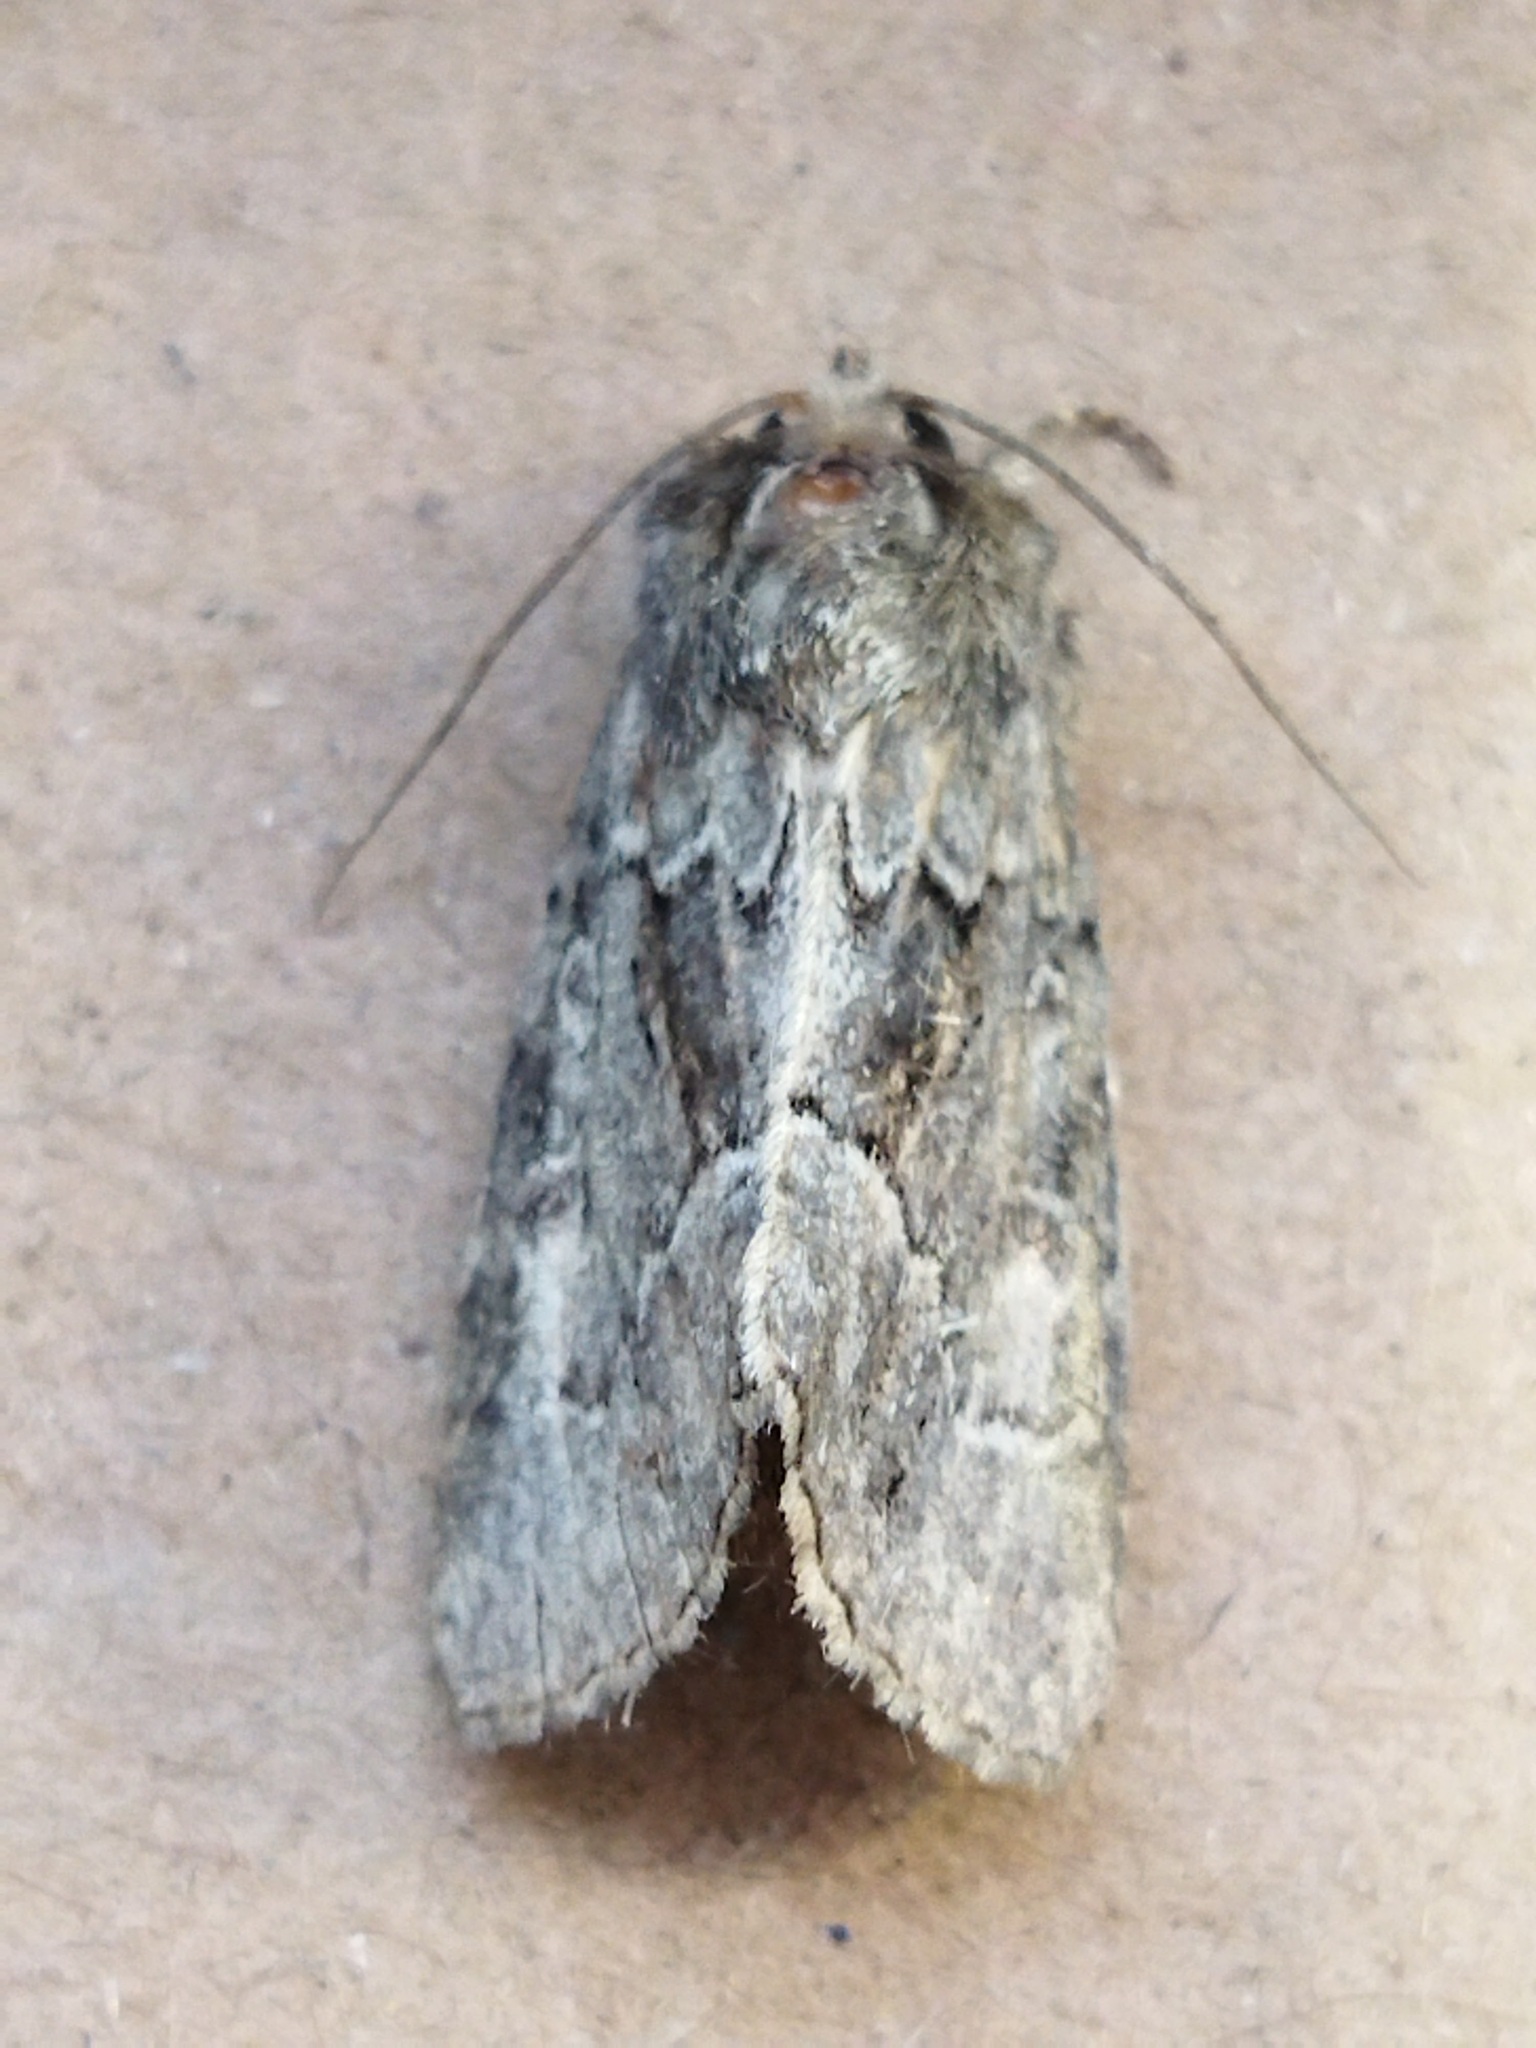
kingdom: Animalia
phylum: Arthropoda
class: Insecta
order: Lepidoptera
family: Noctuidae
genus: Thalpophila
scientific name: Thalpophila matura
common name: Straw underwing
